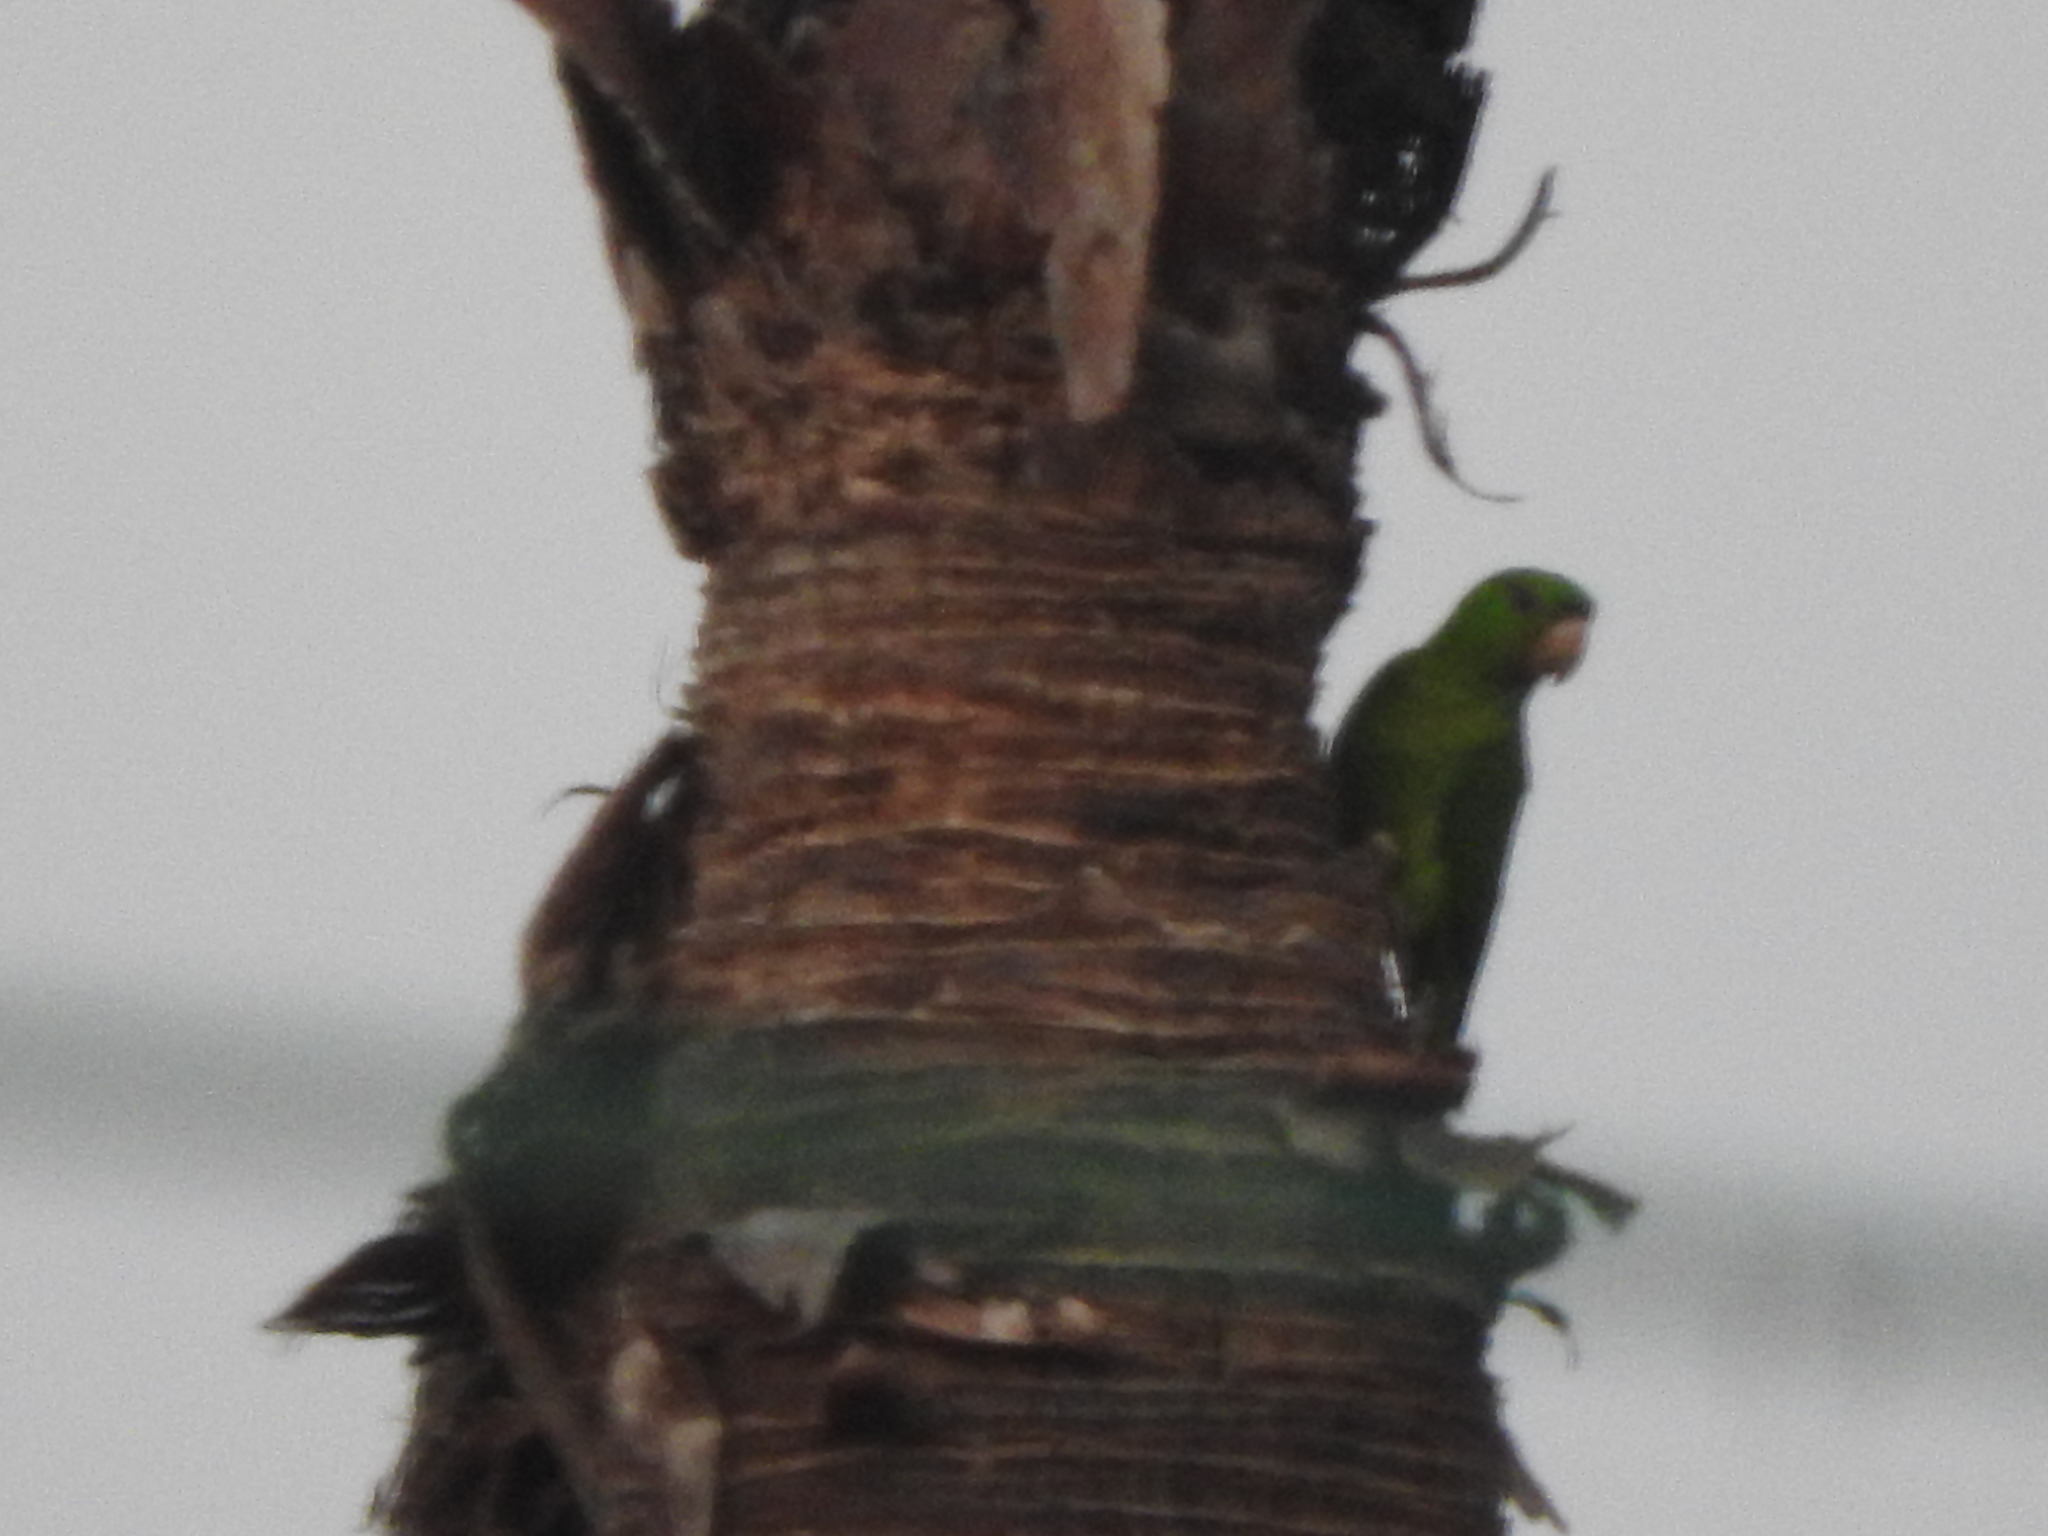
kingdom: Animalia
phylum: Chordata
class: Aves
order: Psittaciformes
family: Psittacidae
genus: Aratinga
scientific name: Aratinga holochlora
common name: Green parakeet
